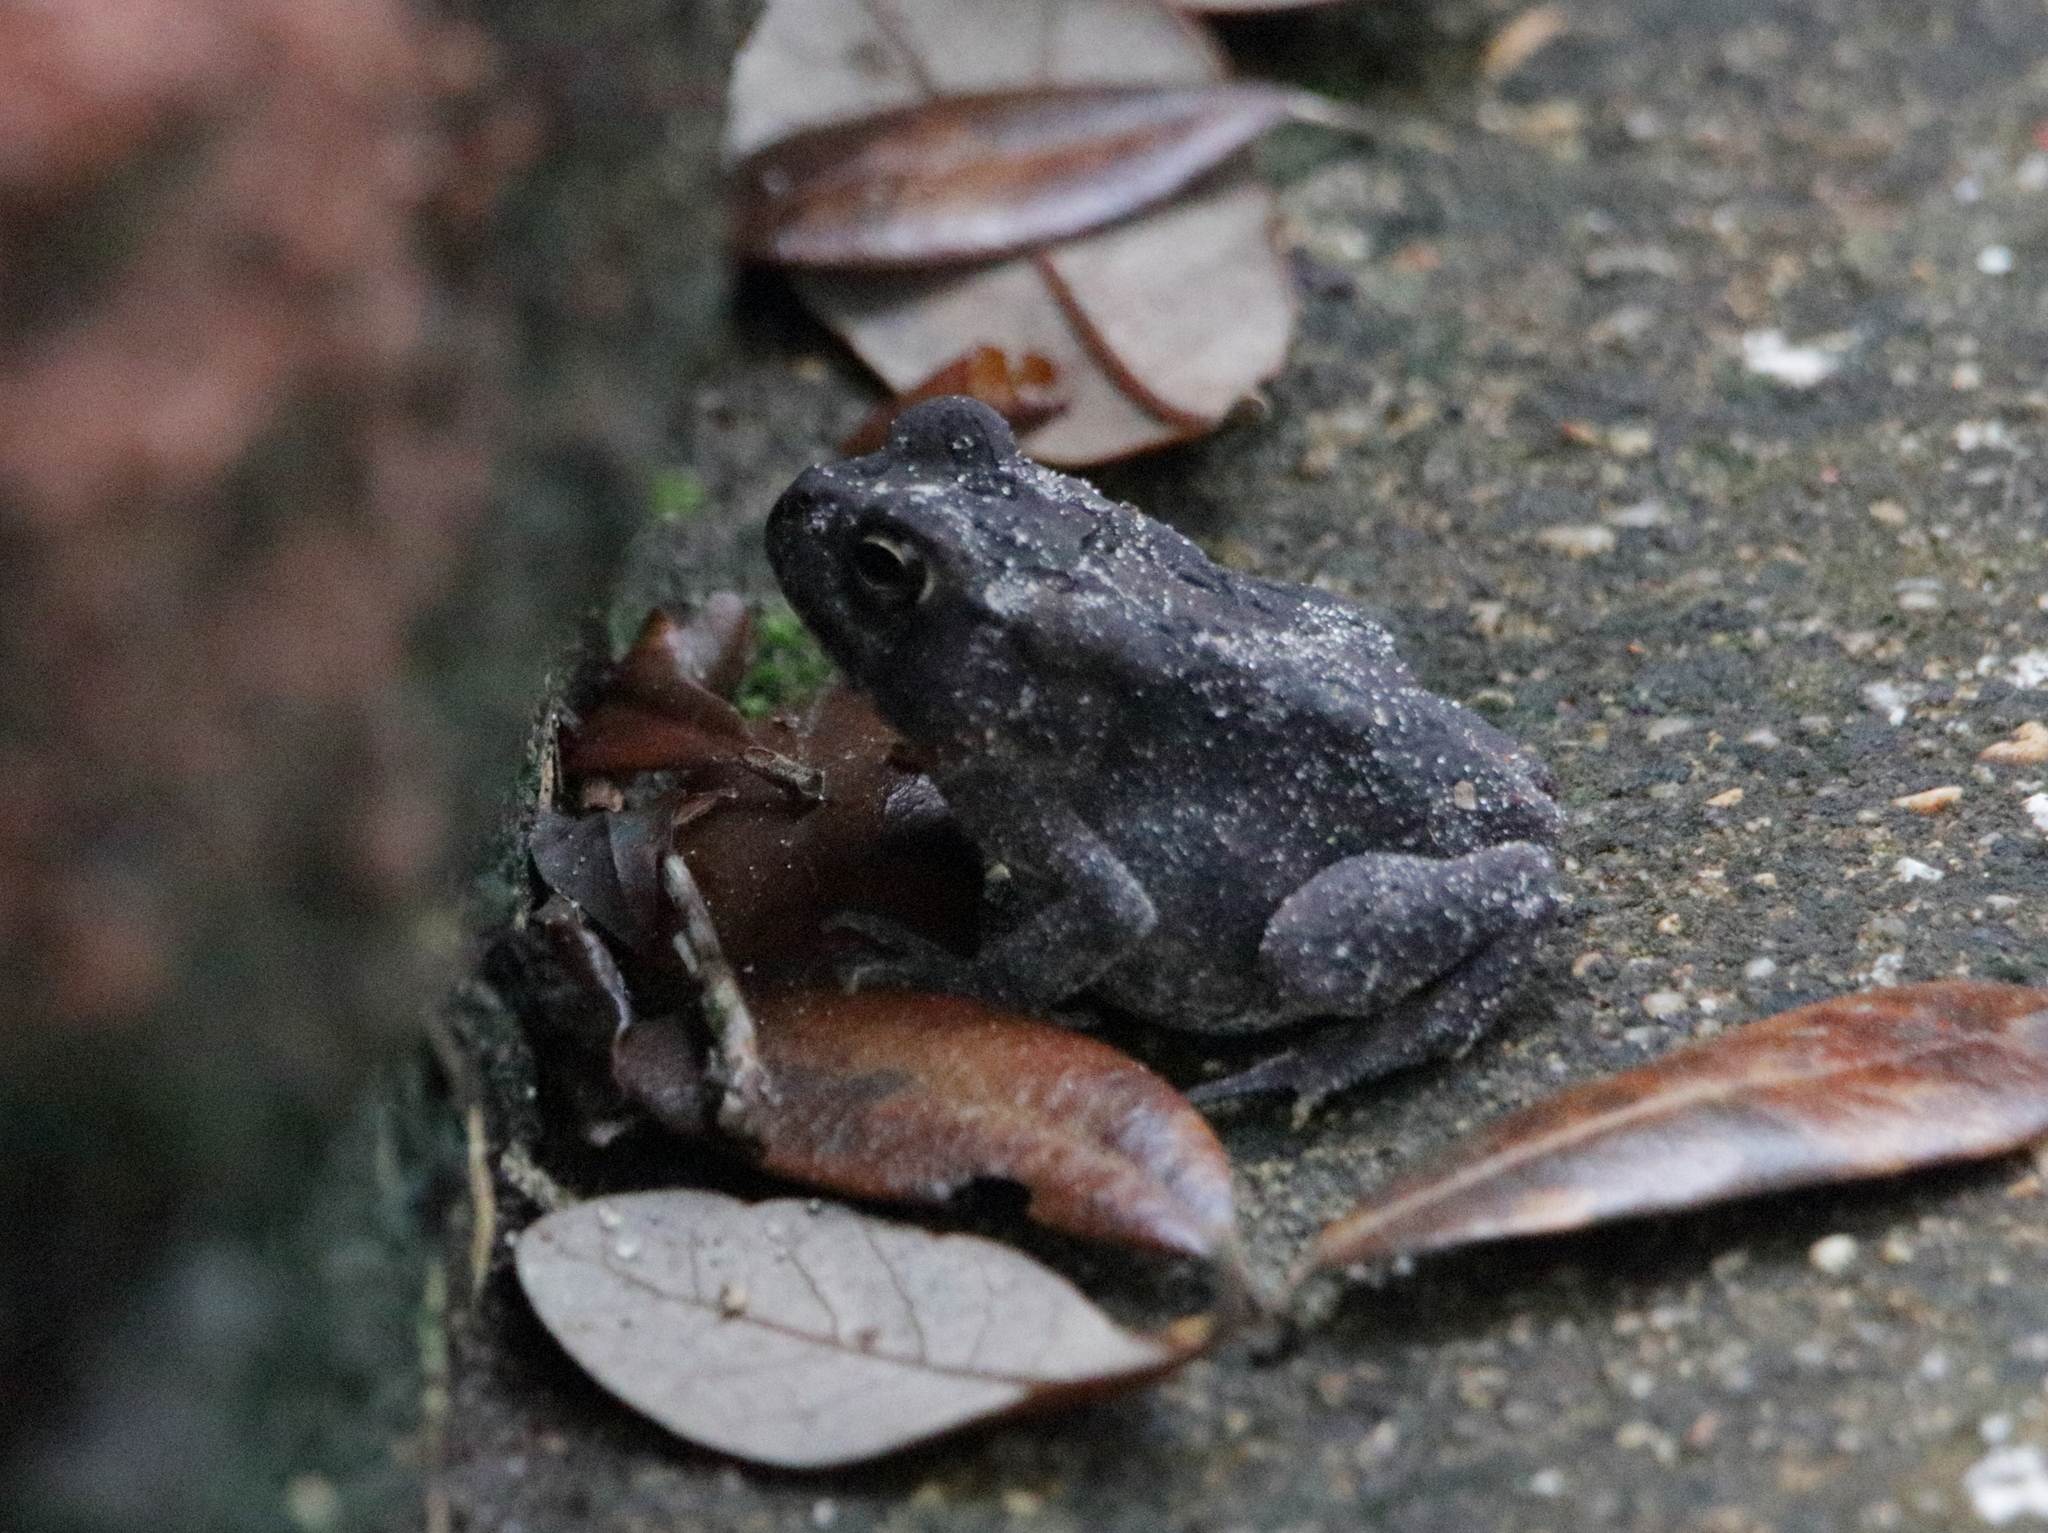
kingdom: Animalia
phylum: Chordata
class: Amphibia
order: Anura
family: Bufonidae
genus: Anaxyrus
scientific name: Anaxyrus terrestris
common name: Southern toad
